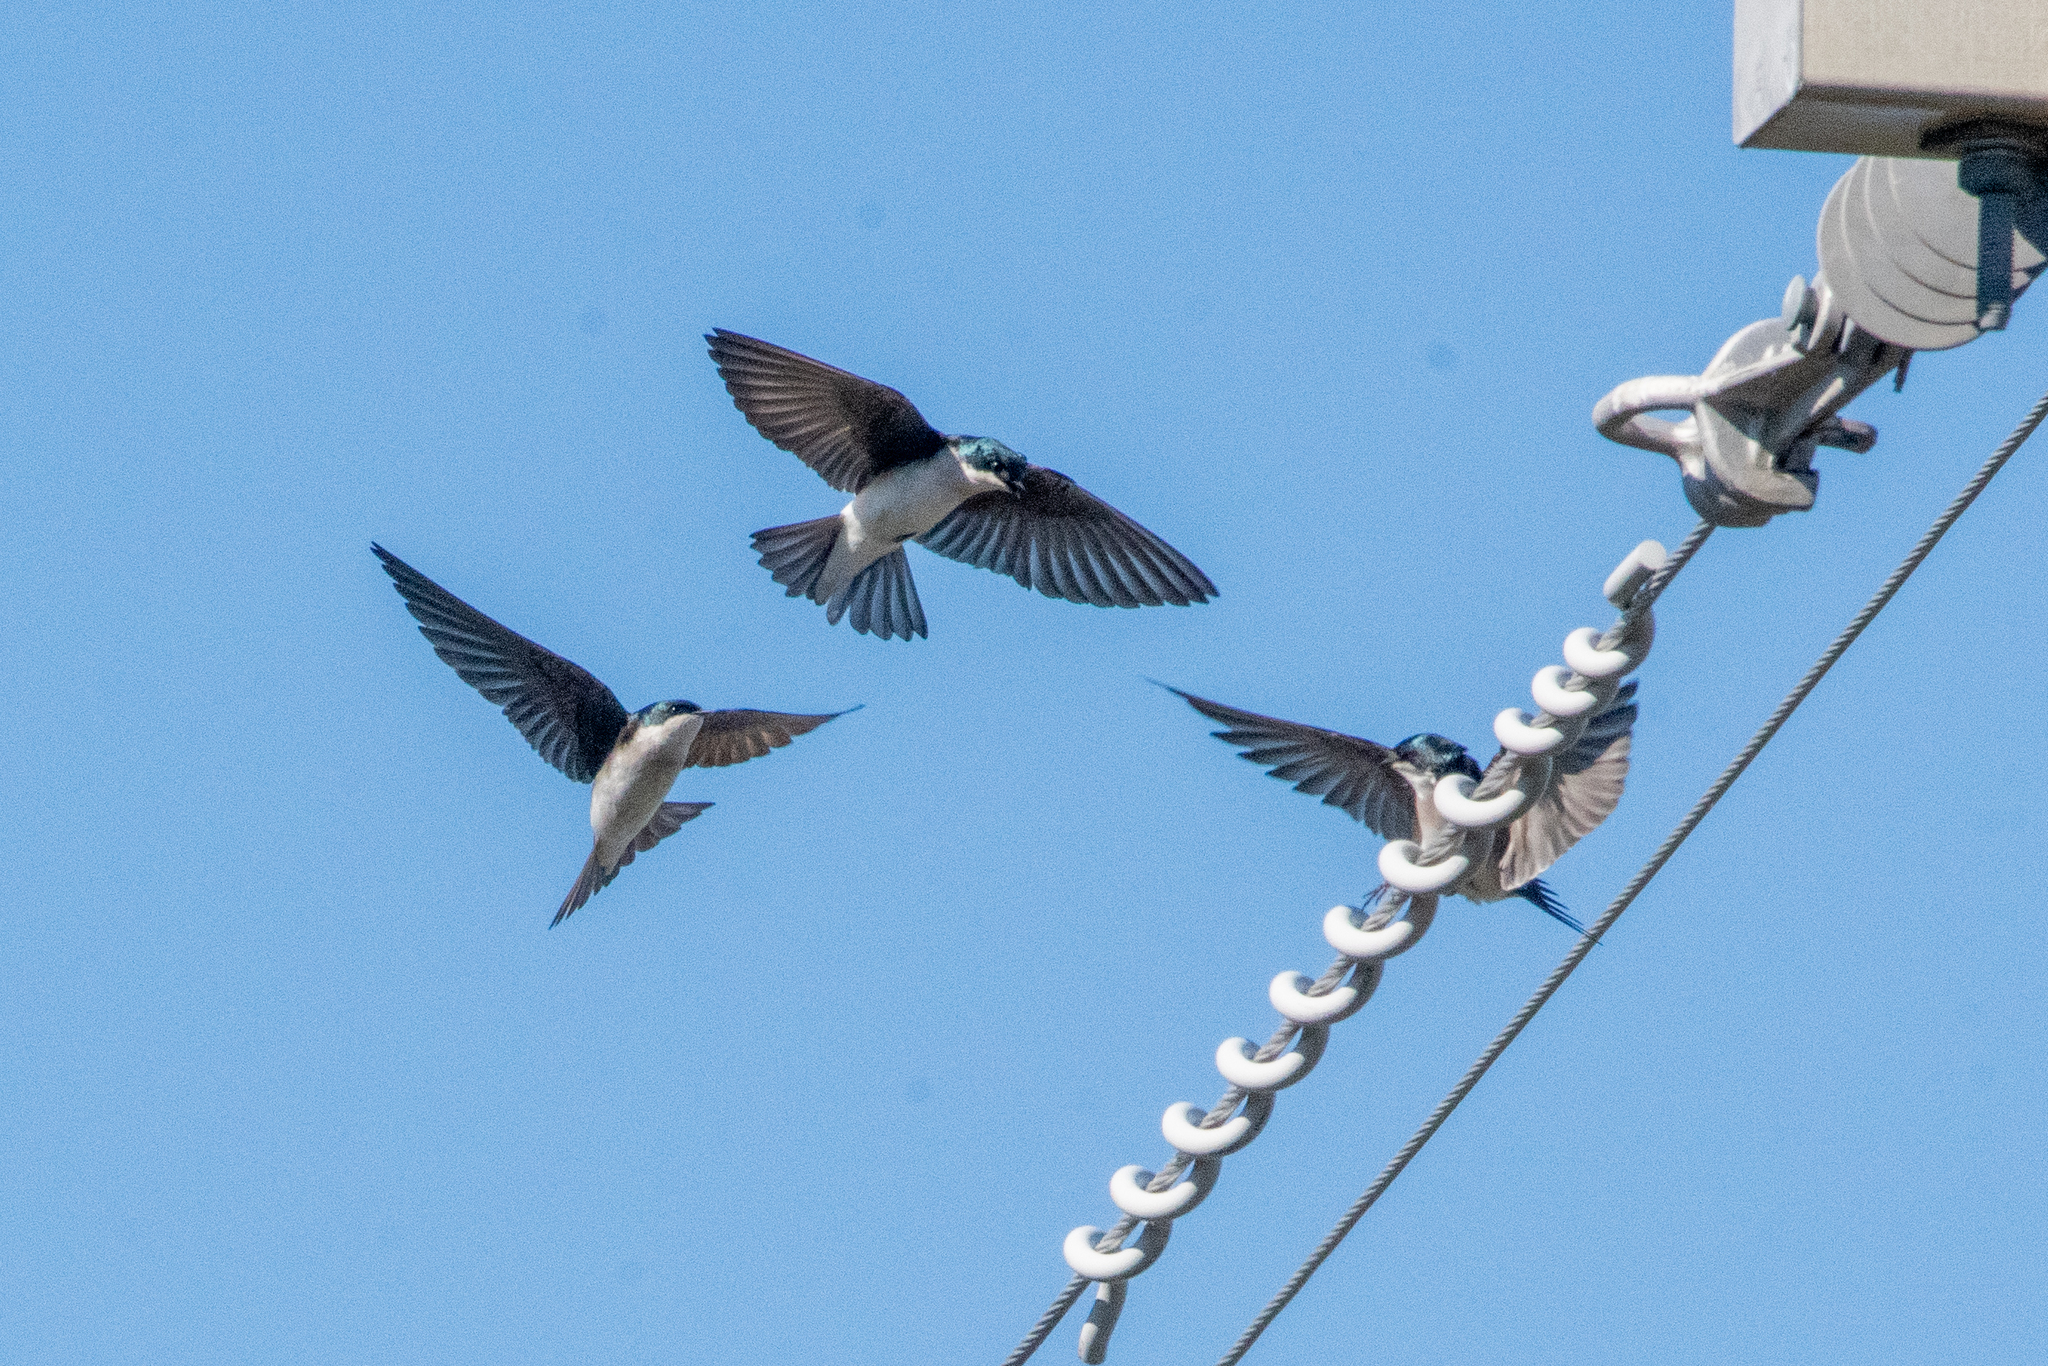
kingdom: Animalia
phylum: Chordata
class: Aves
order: Passeriformes
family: Hirundinidae
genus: Tachycineta
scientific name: Tachycineta bicolor
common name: Tree swallow
